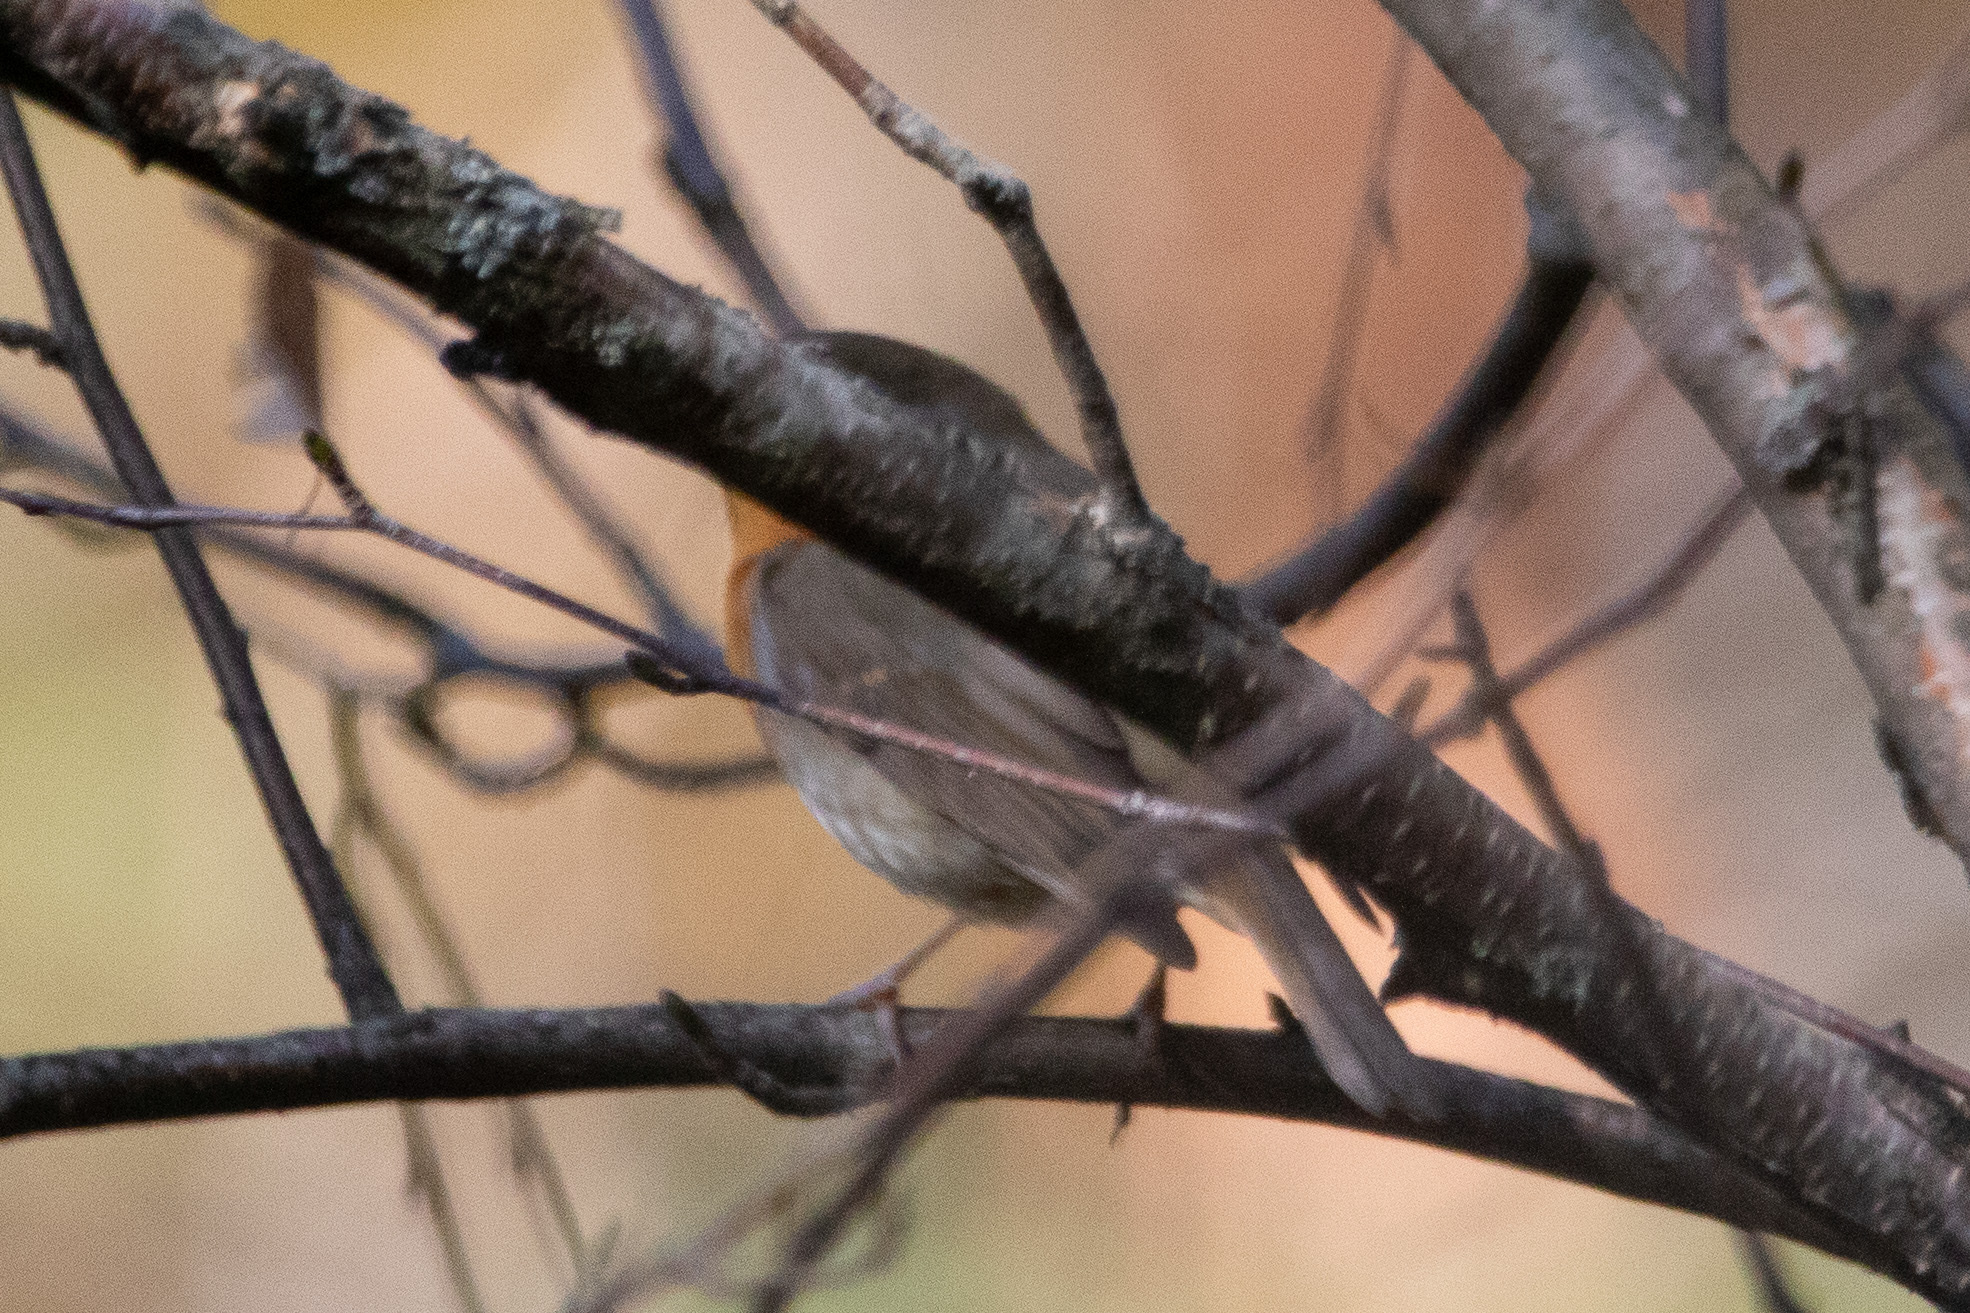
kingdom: Animalia
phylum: Chordata
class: Aves
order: Passeriformes
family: Muscicapidae
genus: Erithacus
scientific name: Erithacus rubecula
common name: European robin
